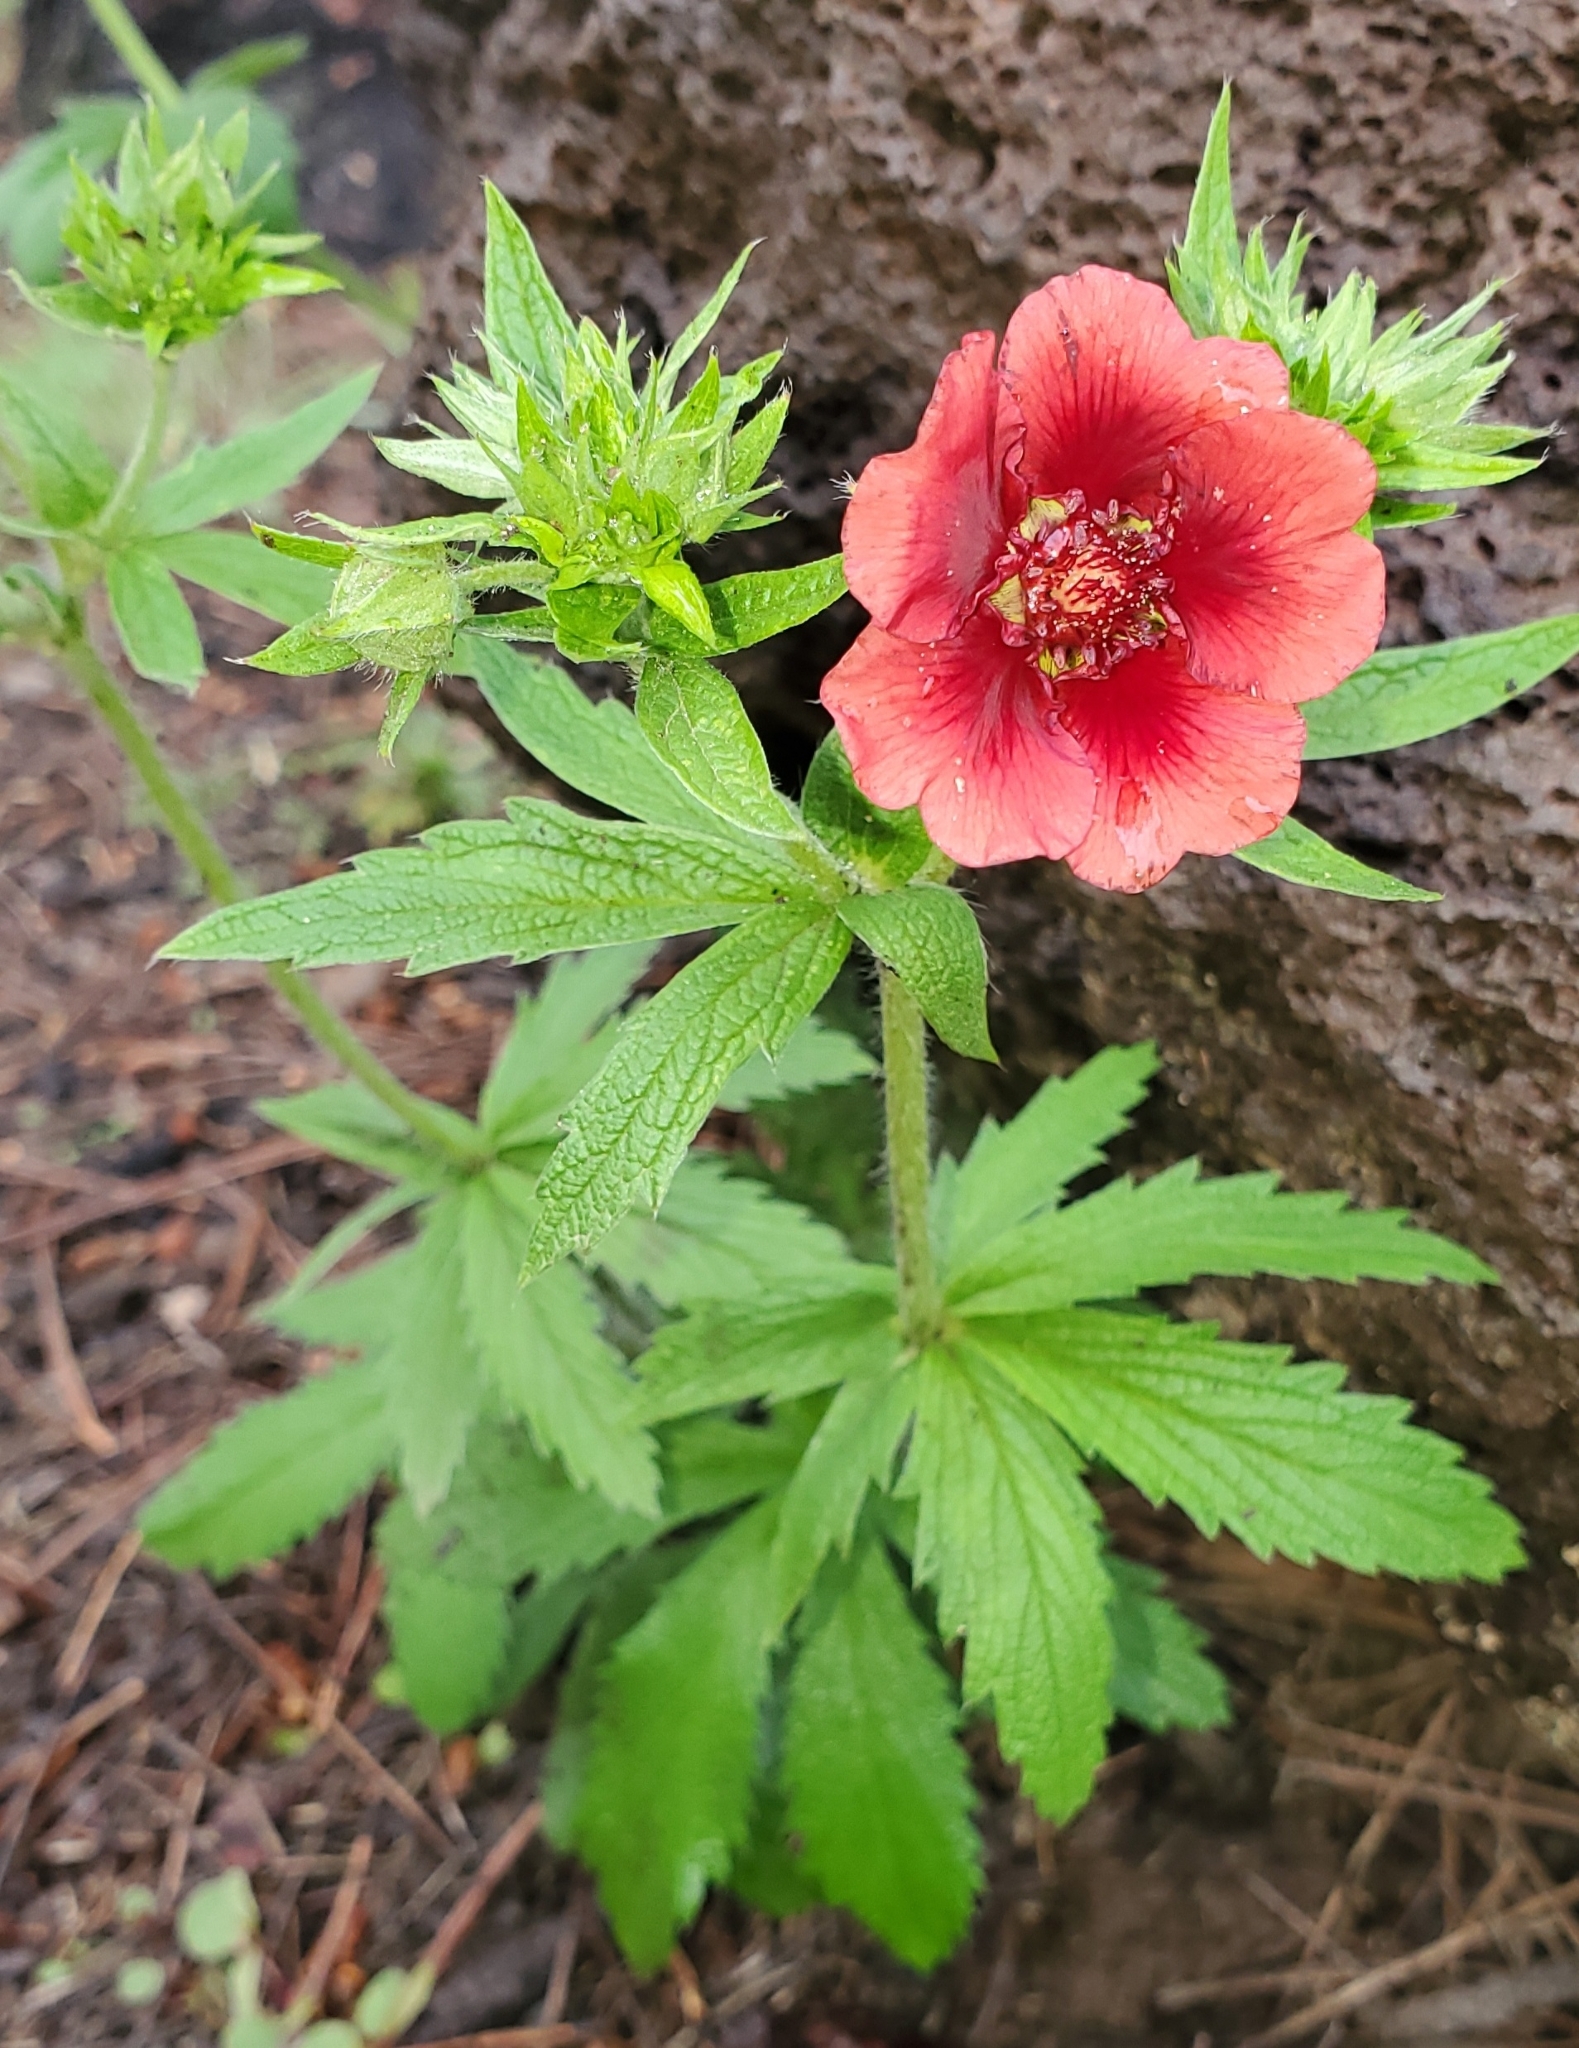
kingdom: Plantae
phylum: Tracheophyta
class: Magnoliopsida
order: Rosales
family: Rosaceae
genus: Potentilla
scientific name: Potentilla thurberi
